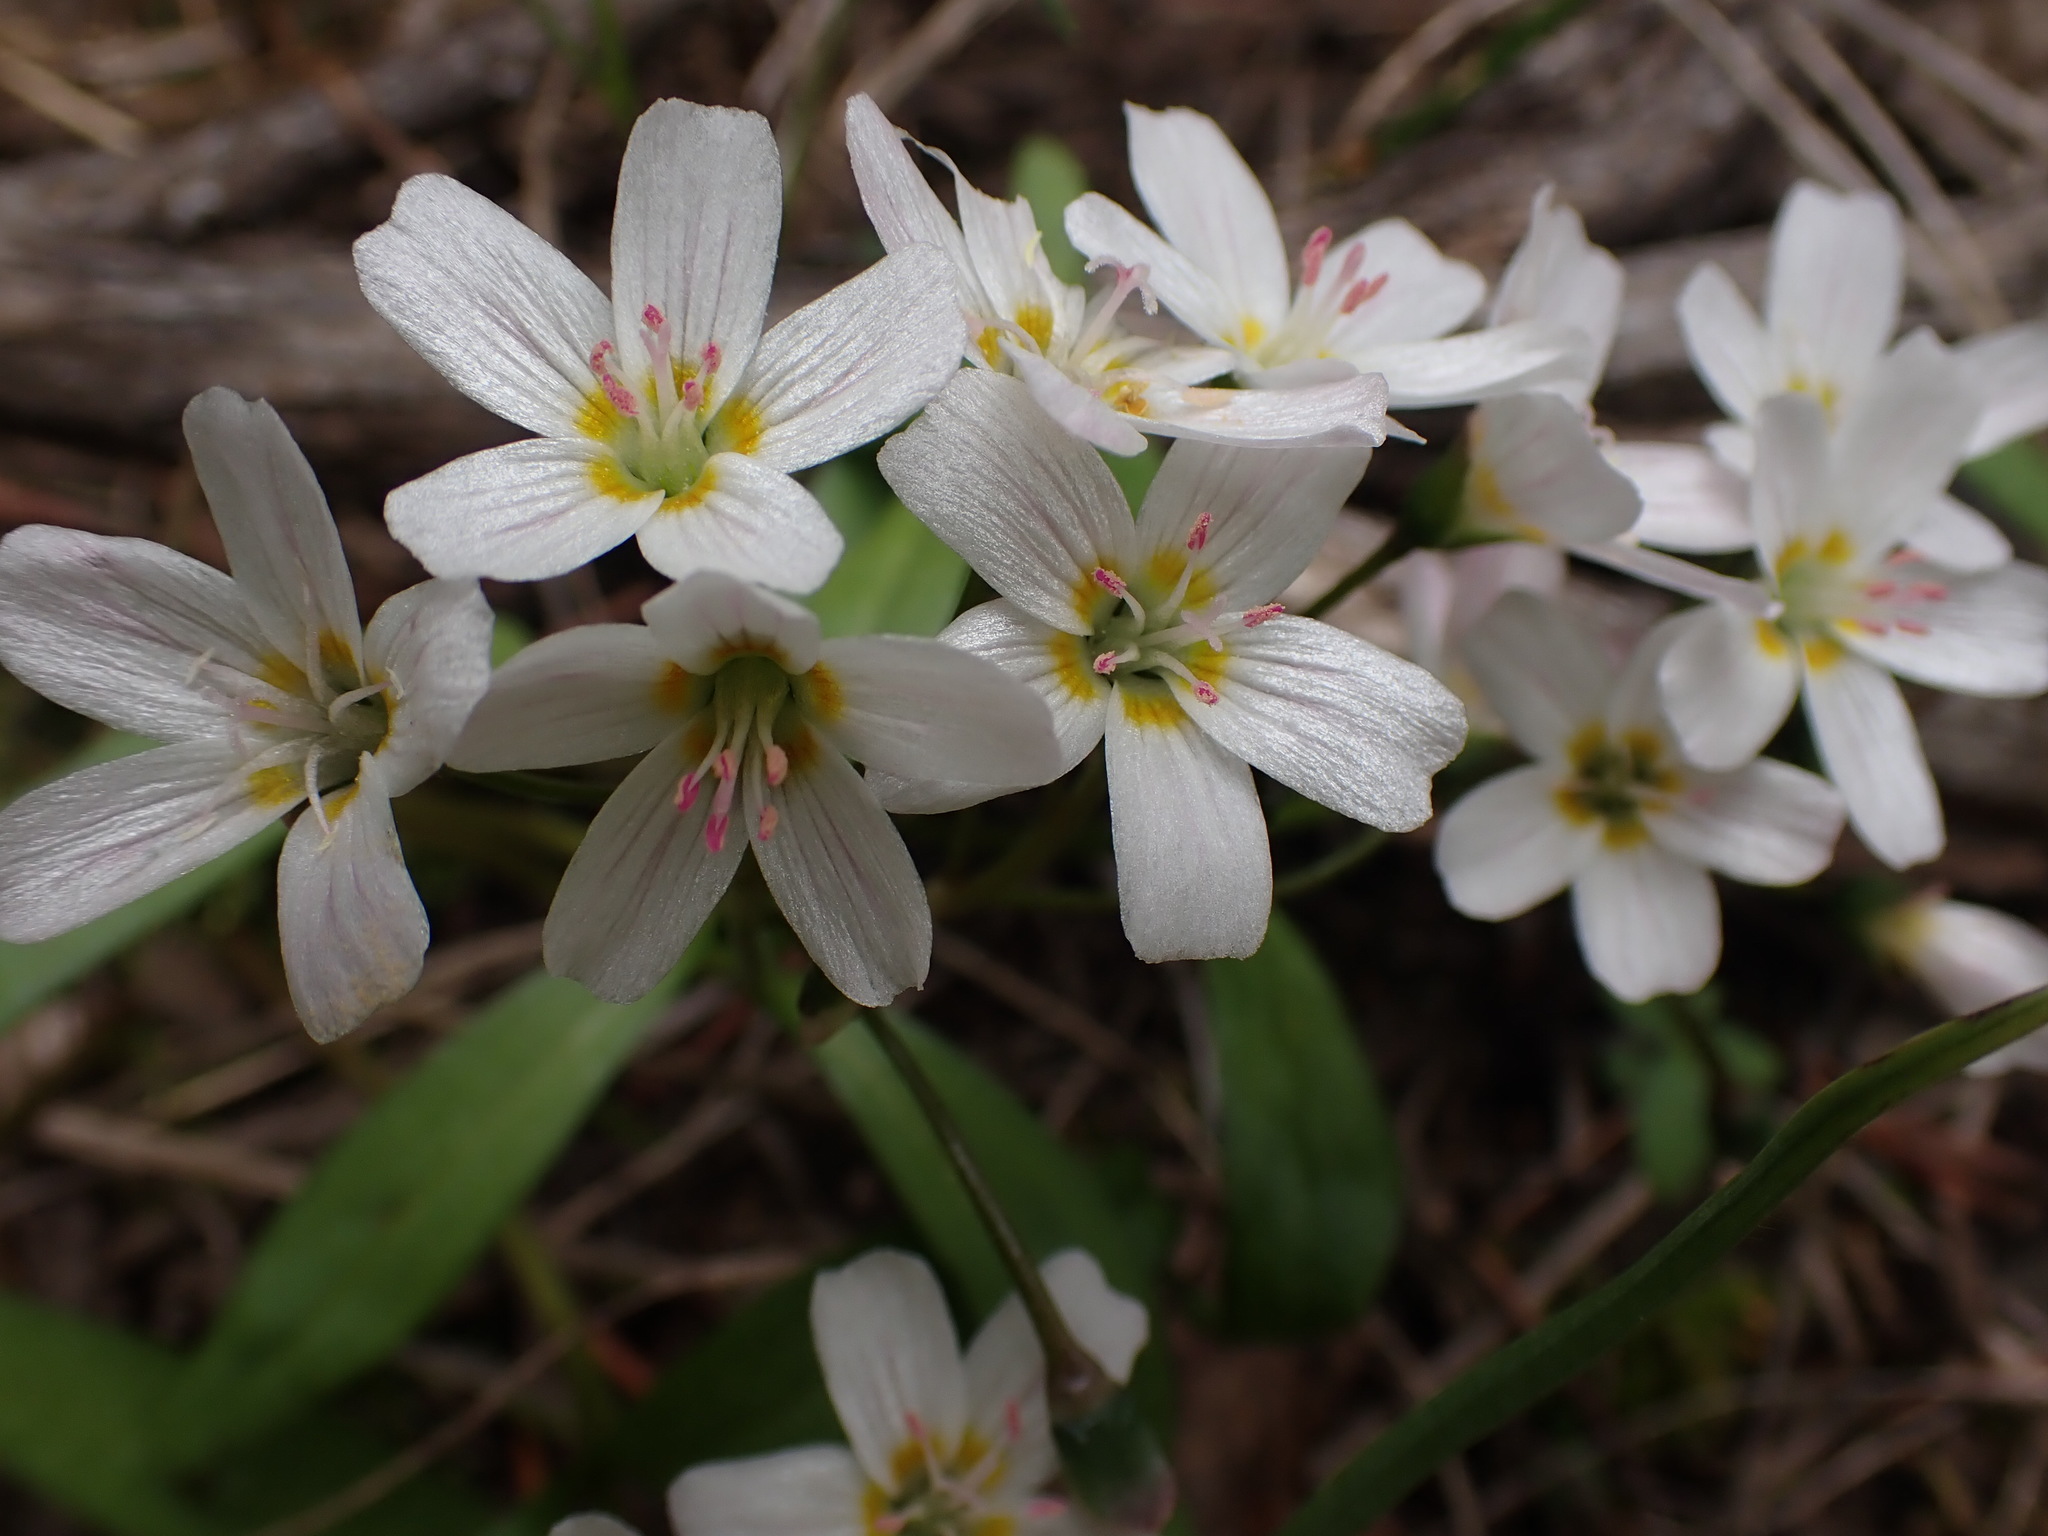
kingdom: Plantae
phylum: Tracheophyta
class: Magnoliopsida
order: Caryophyllales
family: Montiaceae
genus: Claytonia
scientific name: Claytonia lanceolata
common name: Western spring-beauty
